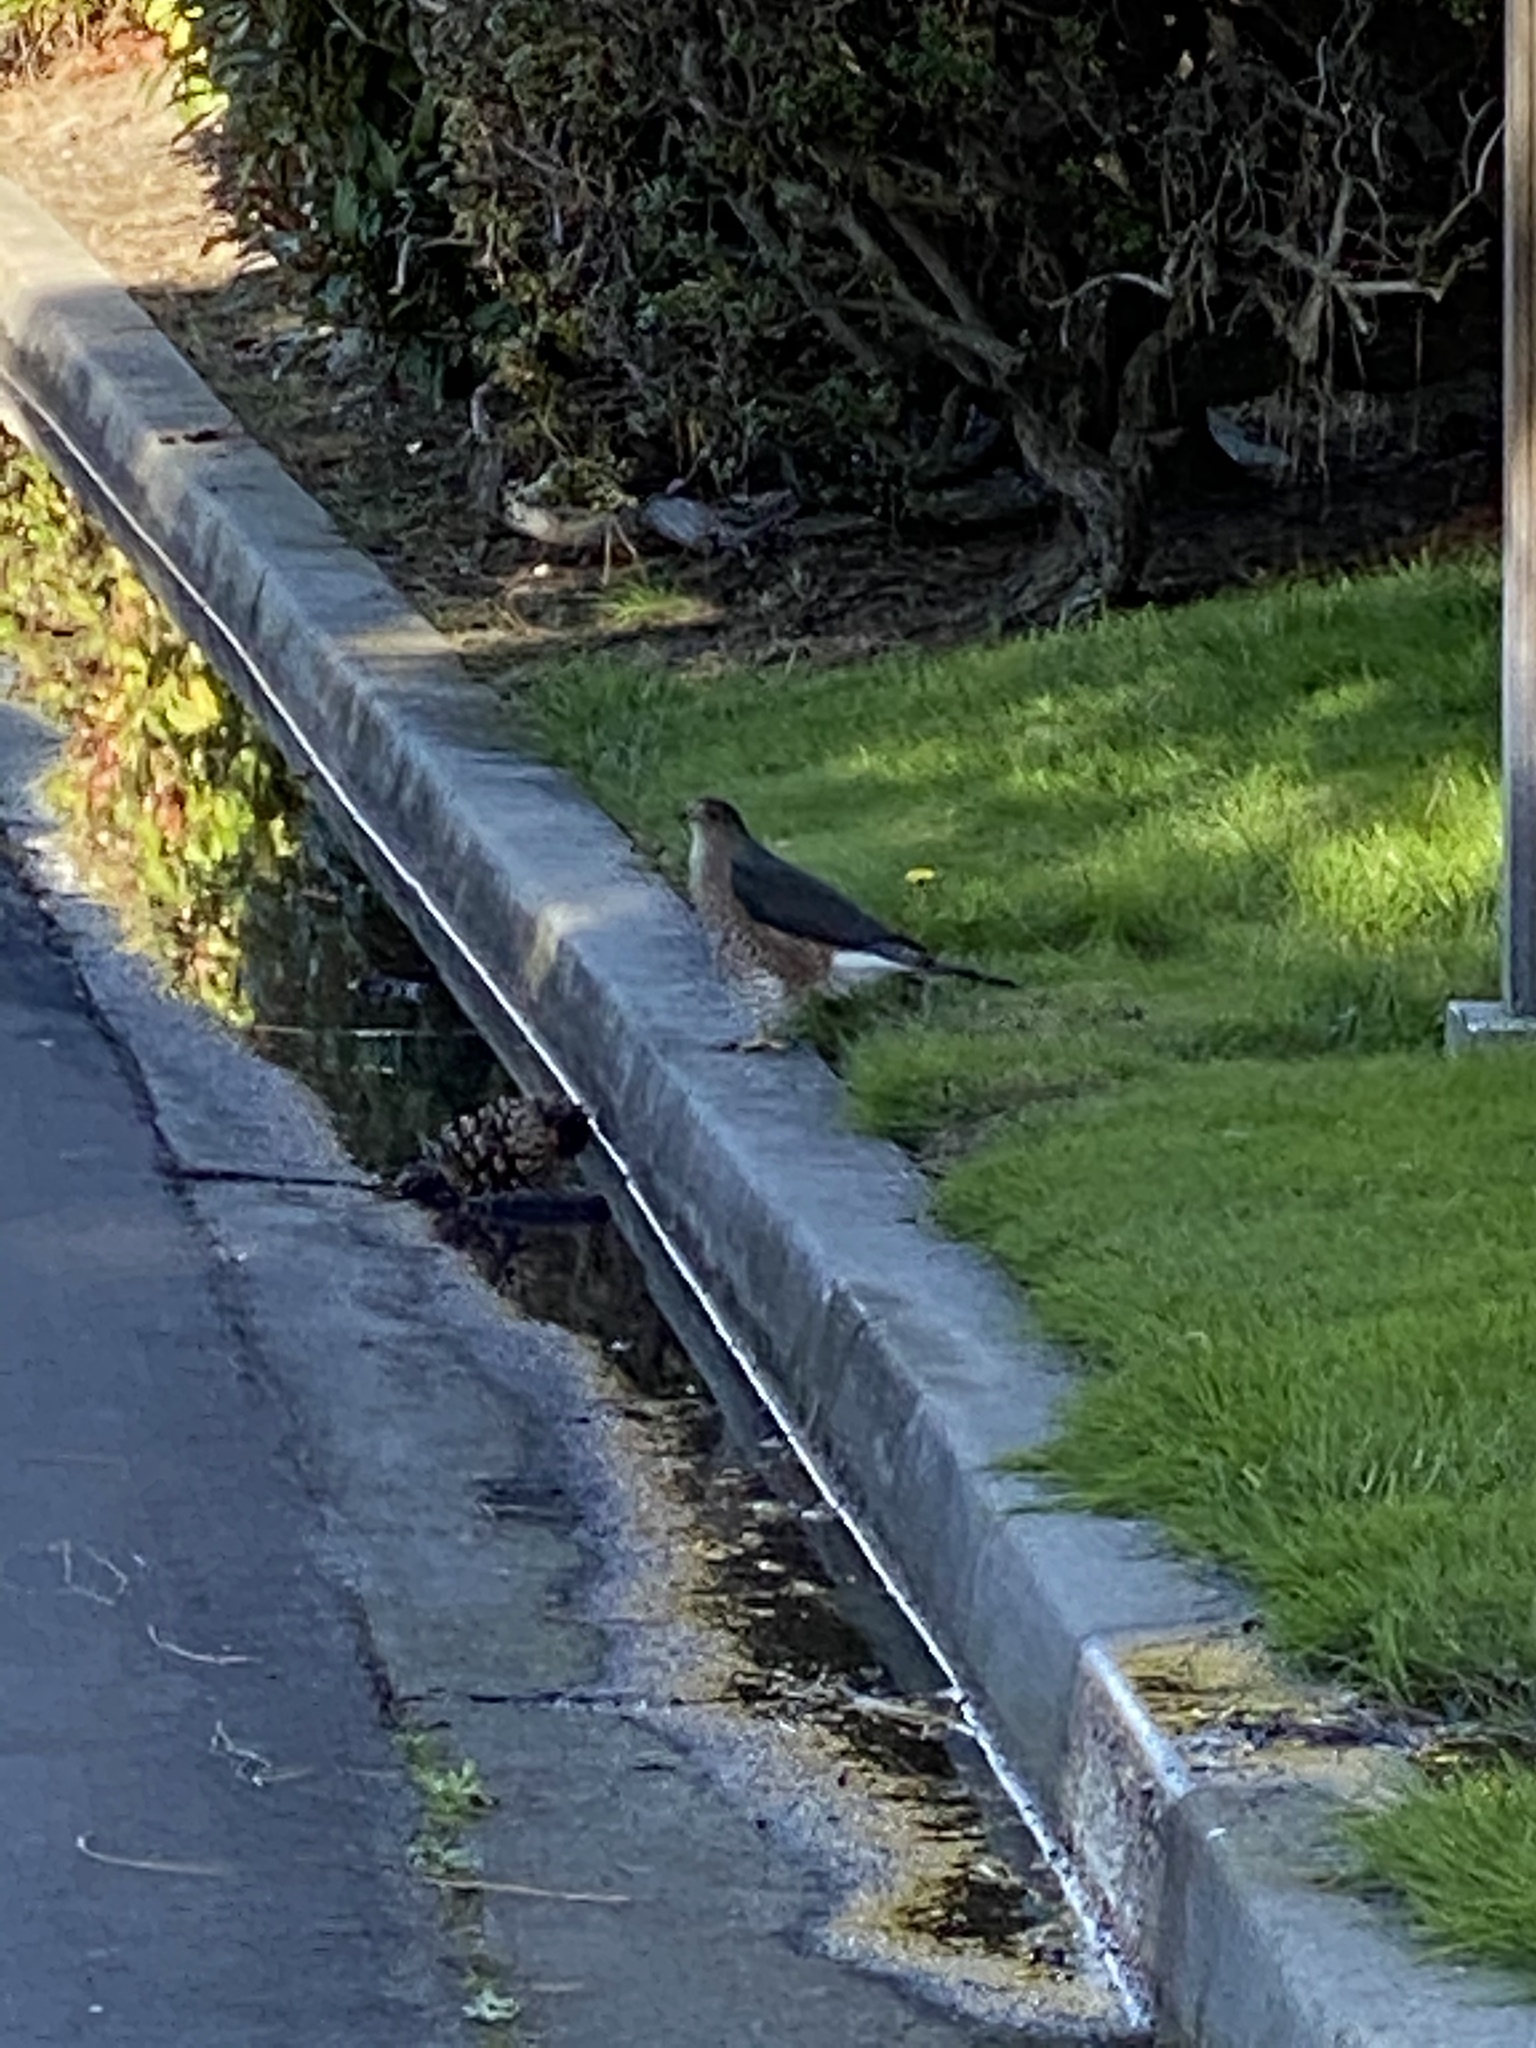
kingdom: Animalia
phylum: Chordata
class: Aves
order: Accipitriformes
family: Accipitridae
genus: Accipiter
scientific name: Accipiter cooperii
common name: Cooper's hawk
